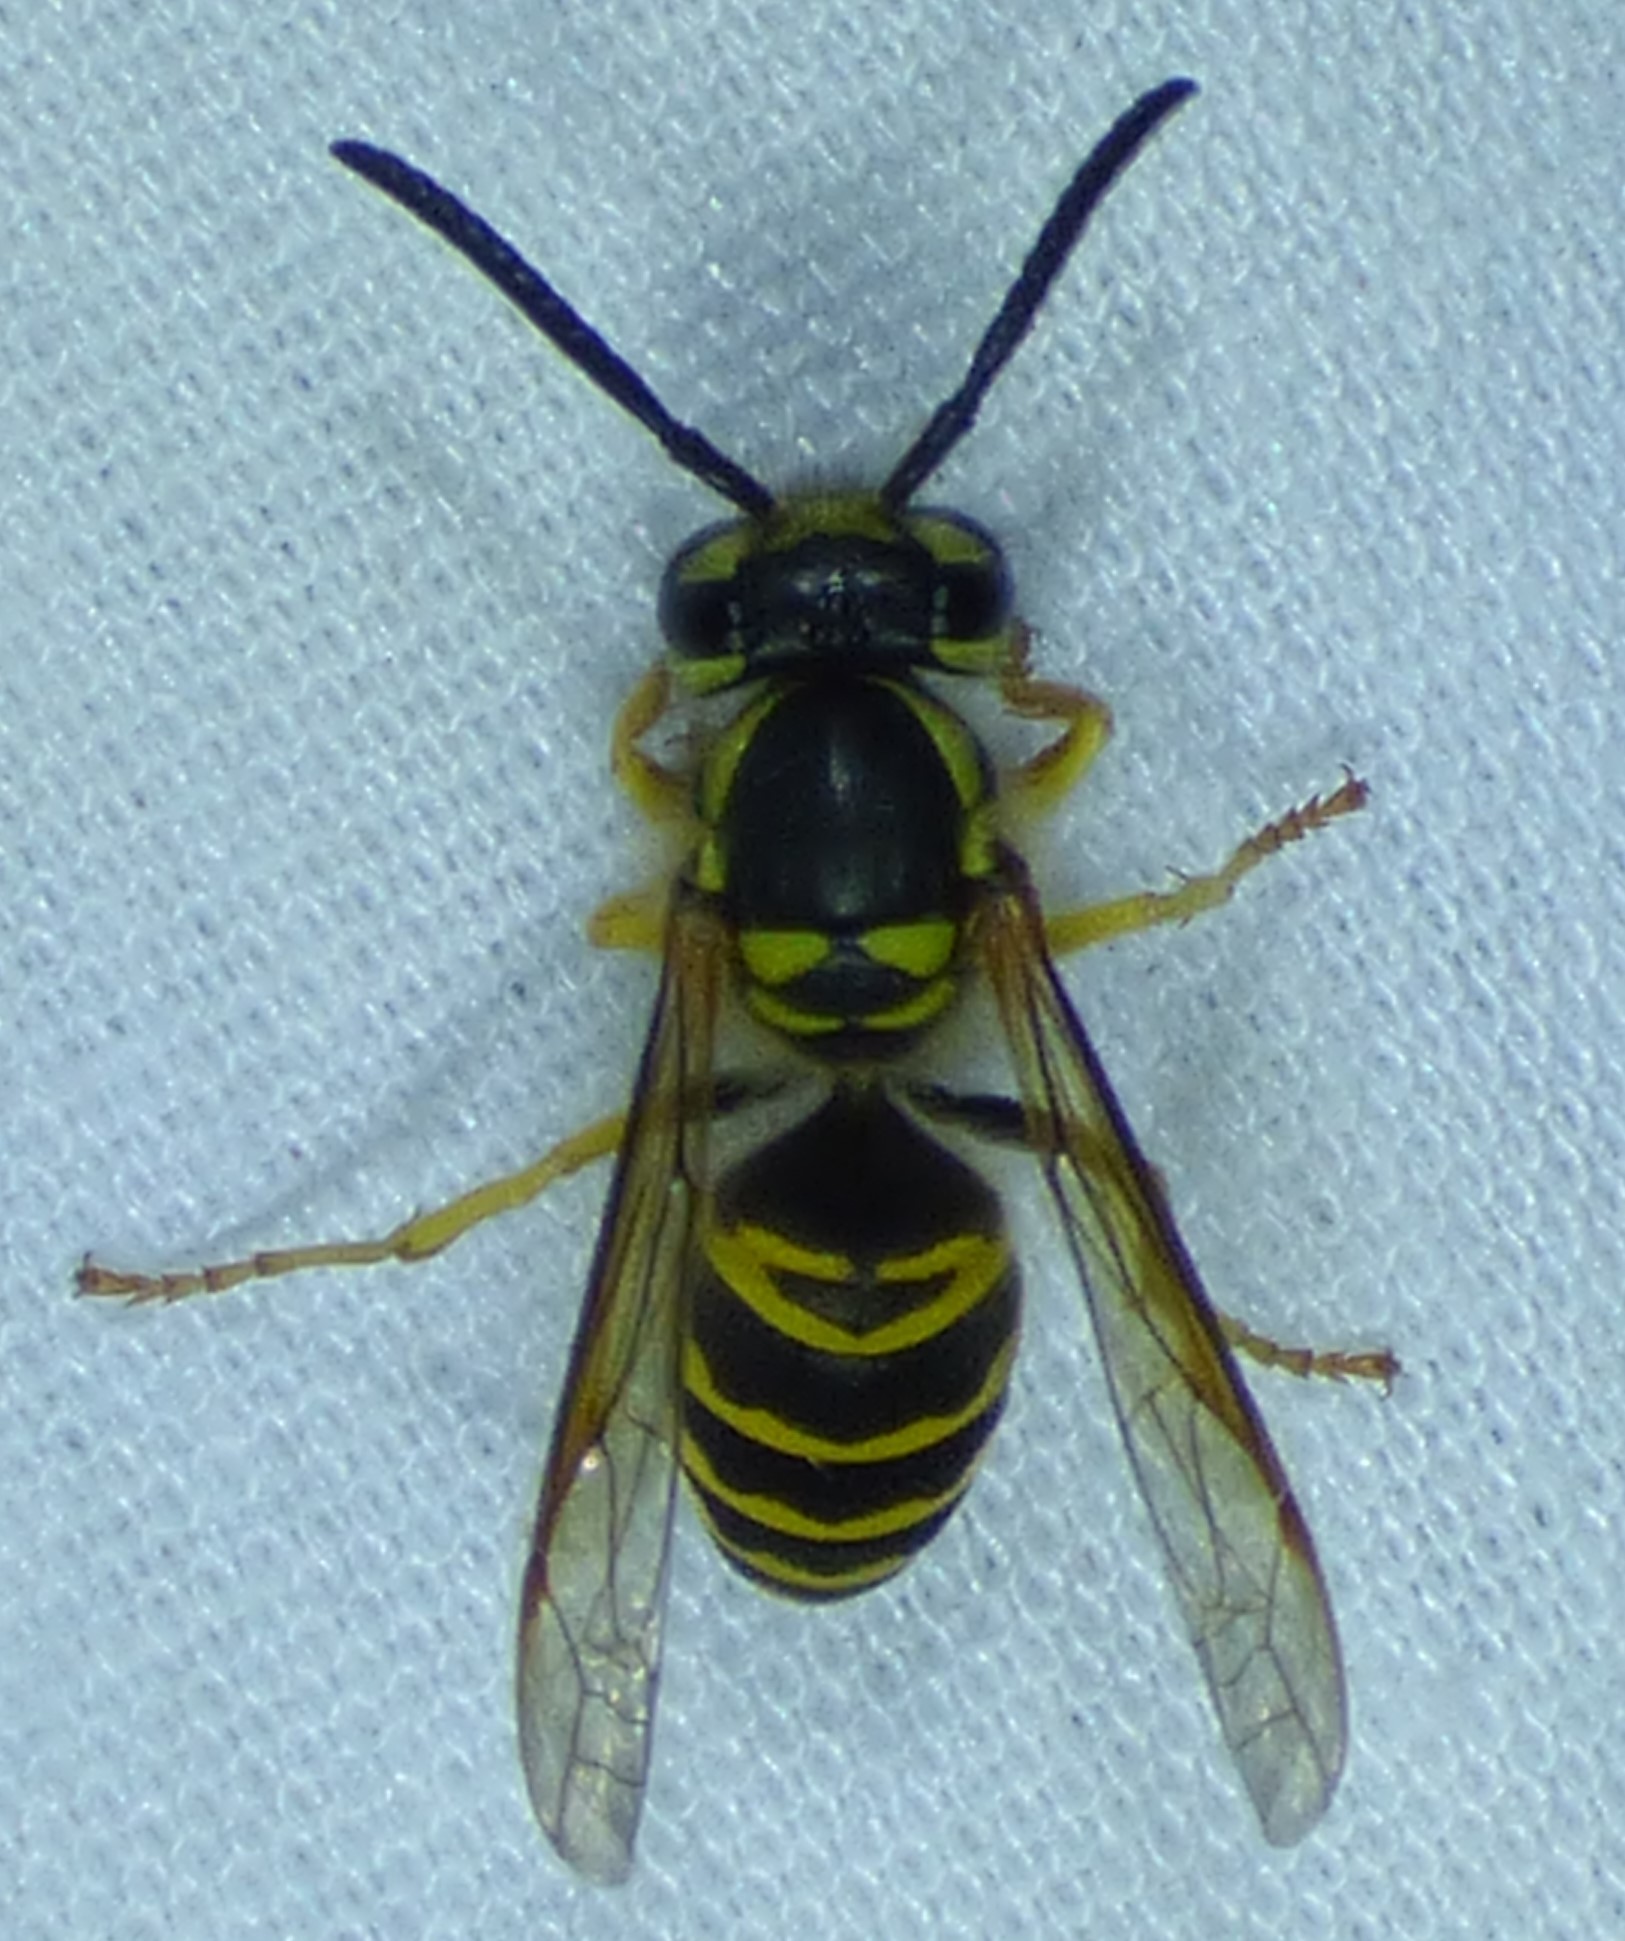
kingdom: Animalia
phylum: Arthropoda
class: Insecta
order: Hymenoptera
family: Vespidae
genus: Vespula
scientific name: Vespula maculifrons
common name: Eastern yellowjacket
